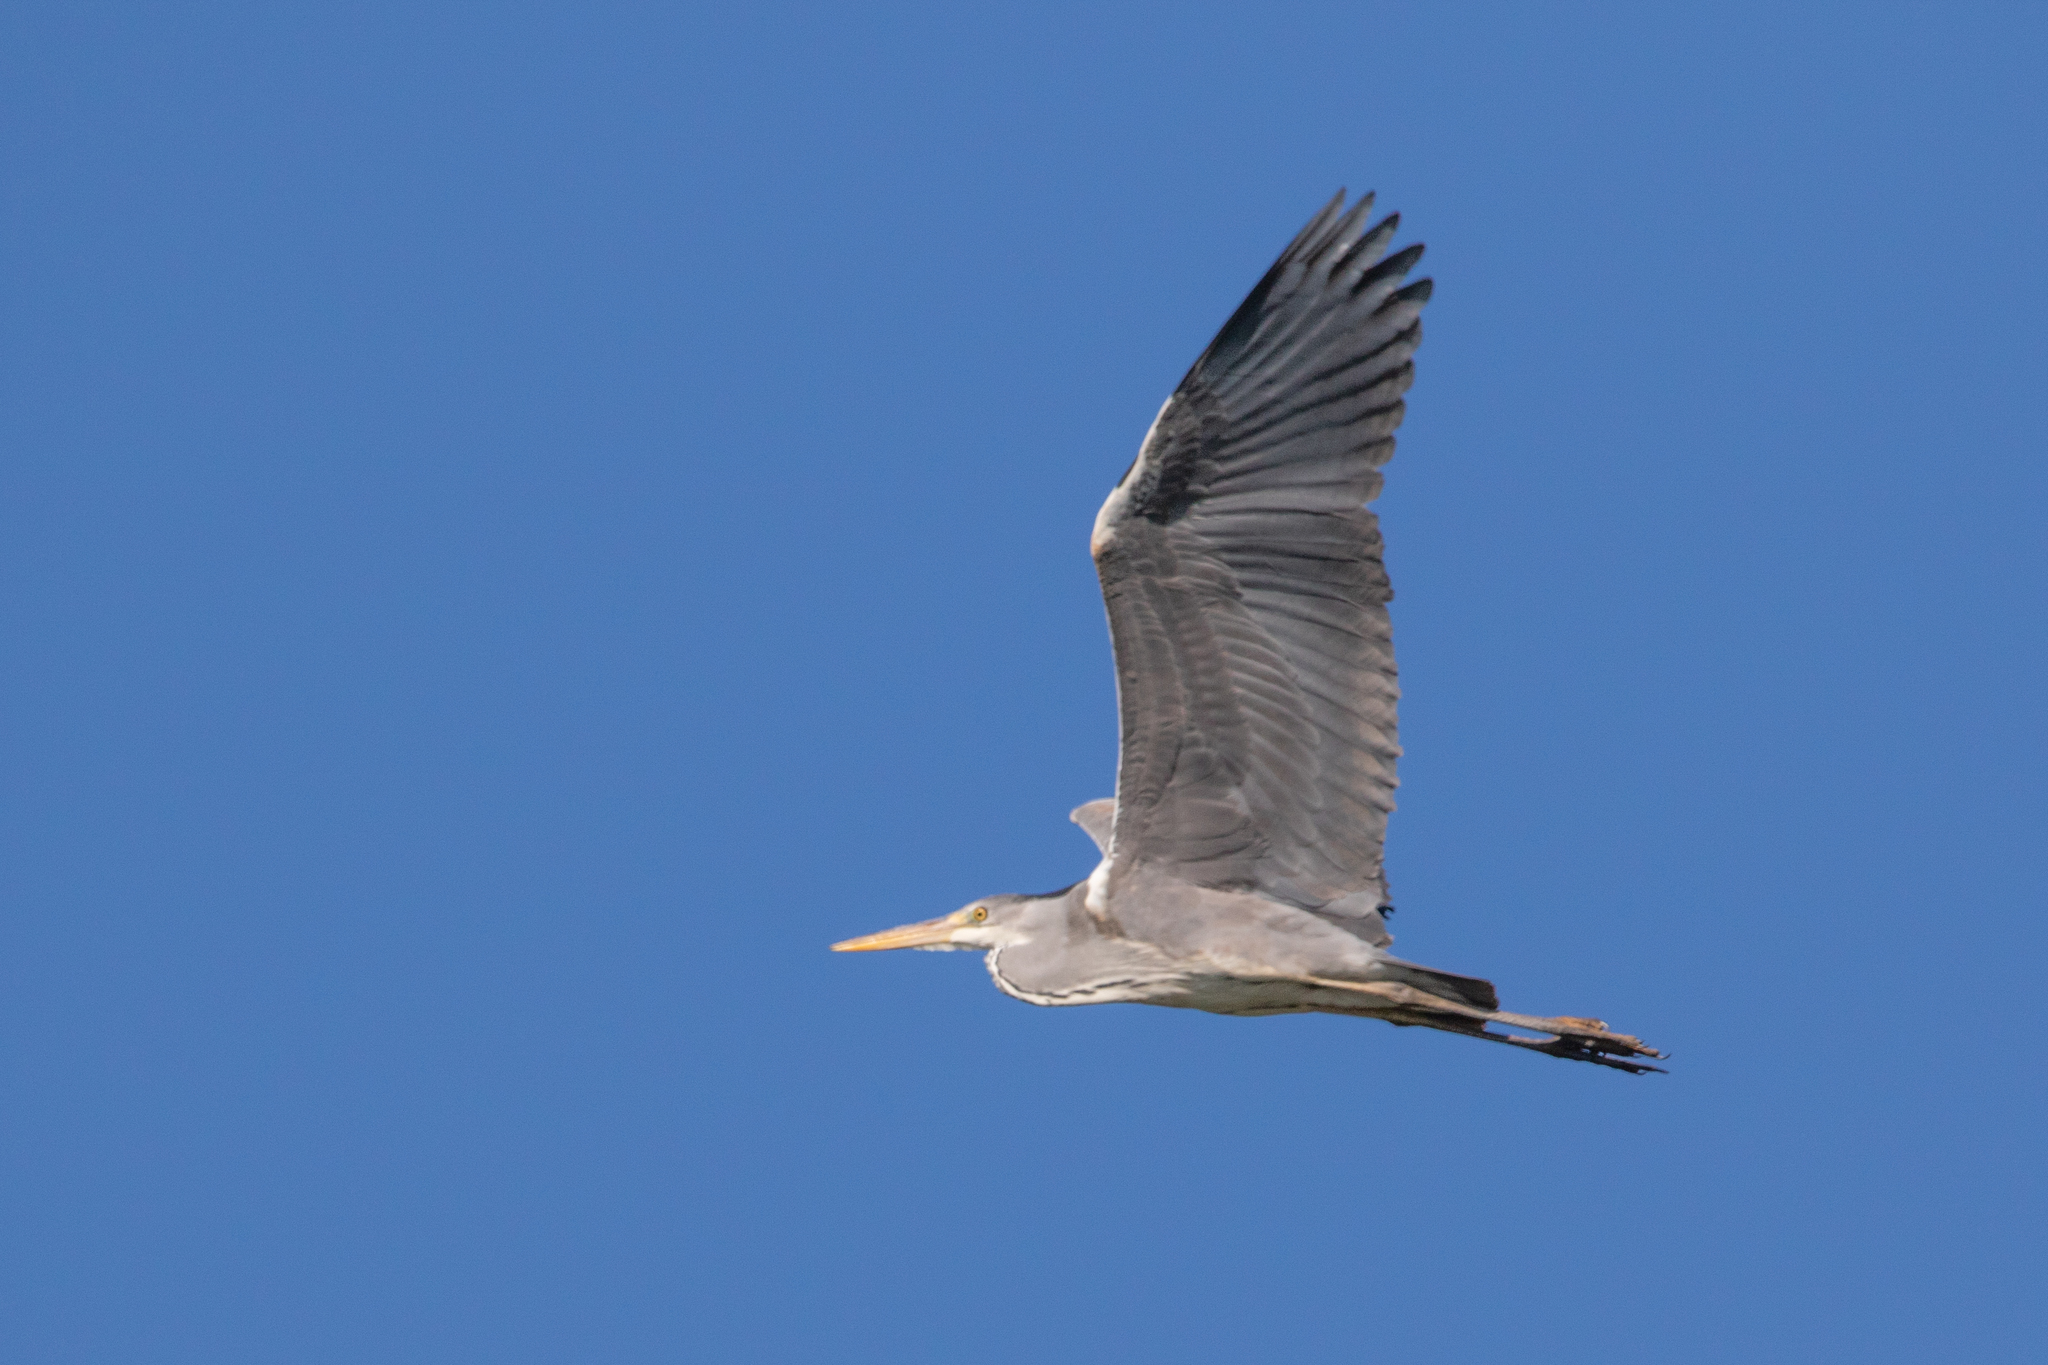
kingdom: Animalia
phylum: Chordata
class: Aves
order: Pelecaniformes
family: Ardeidae
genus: Ardea
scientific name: Ardea cinerea
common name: Grey heron
